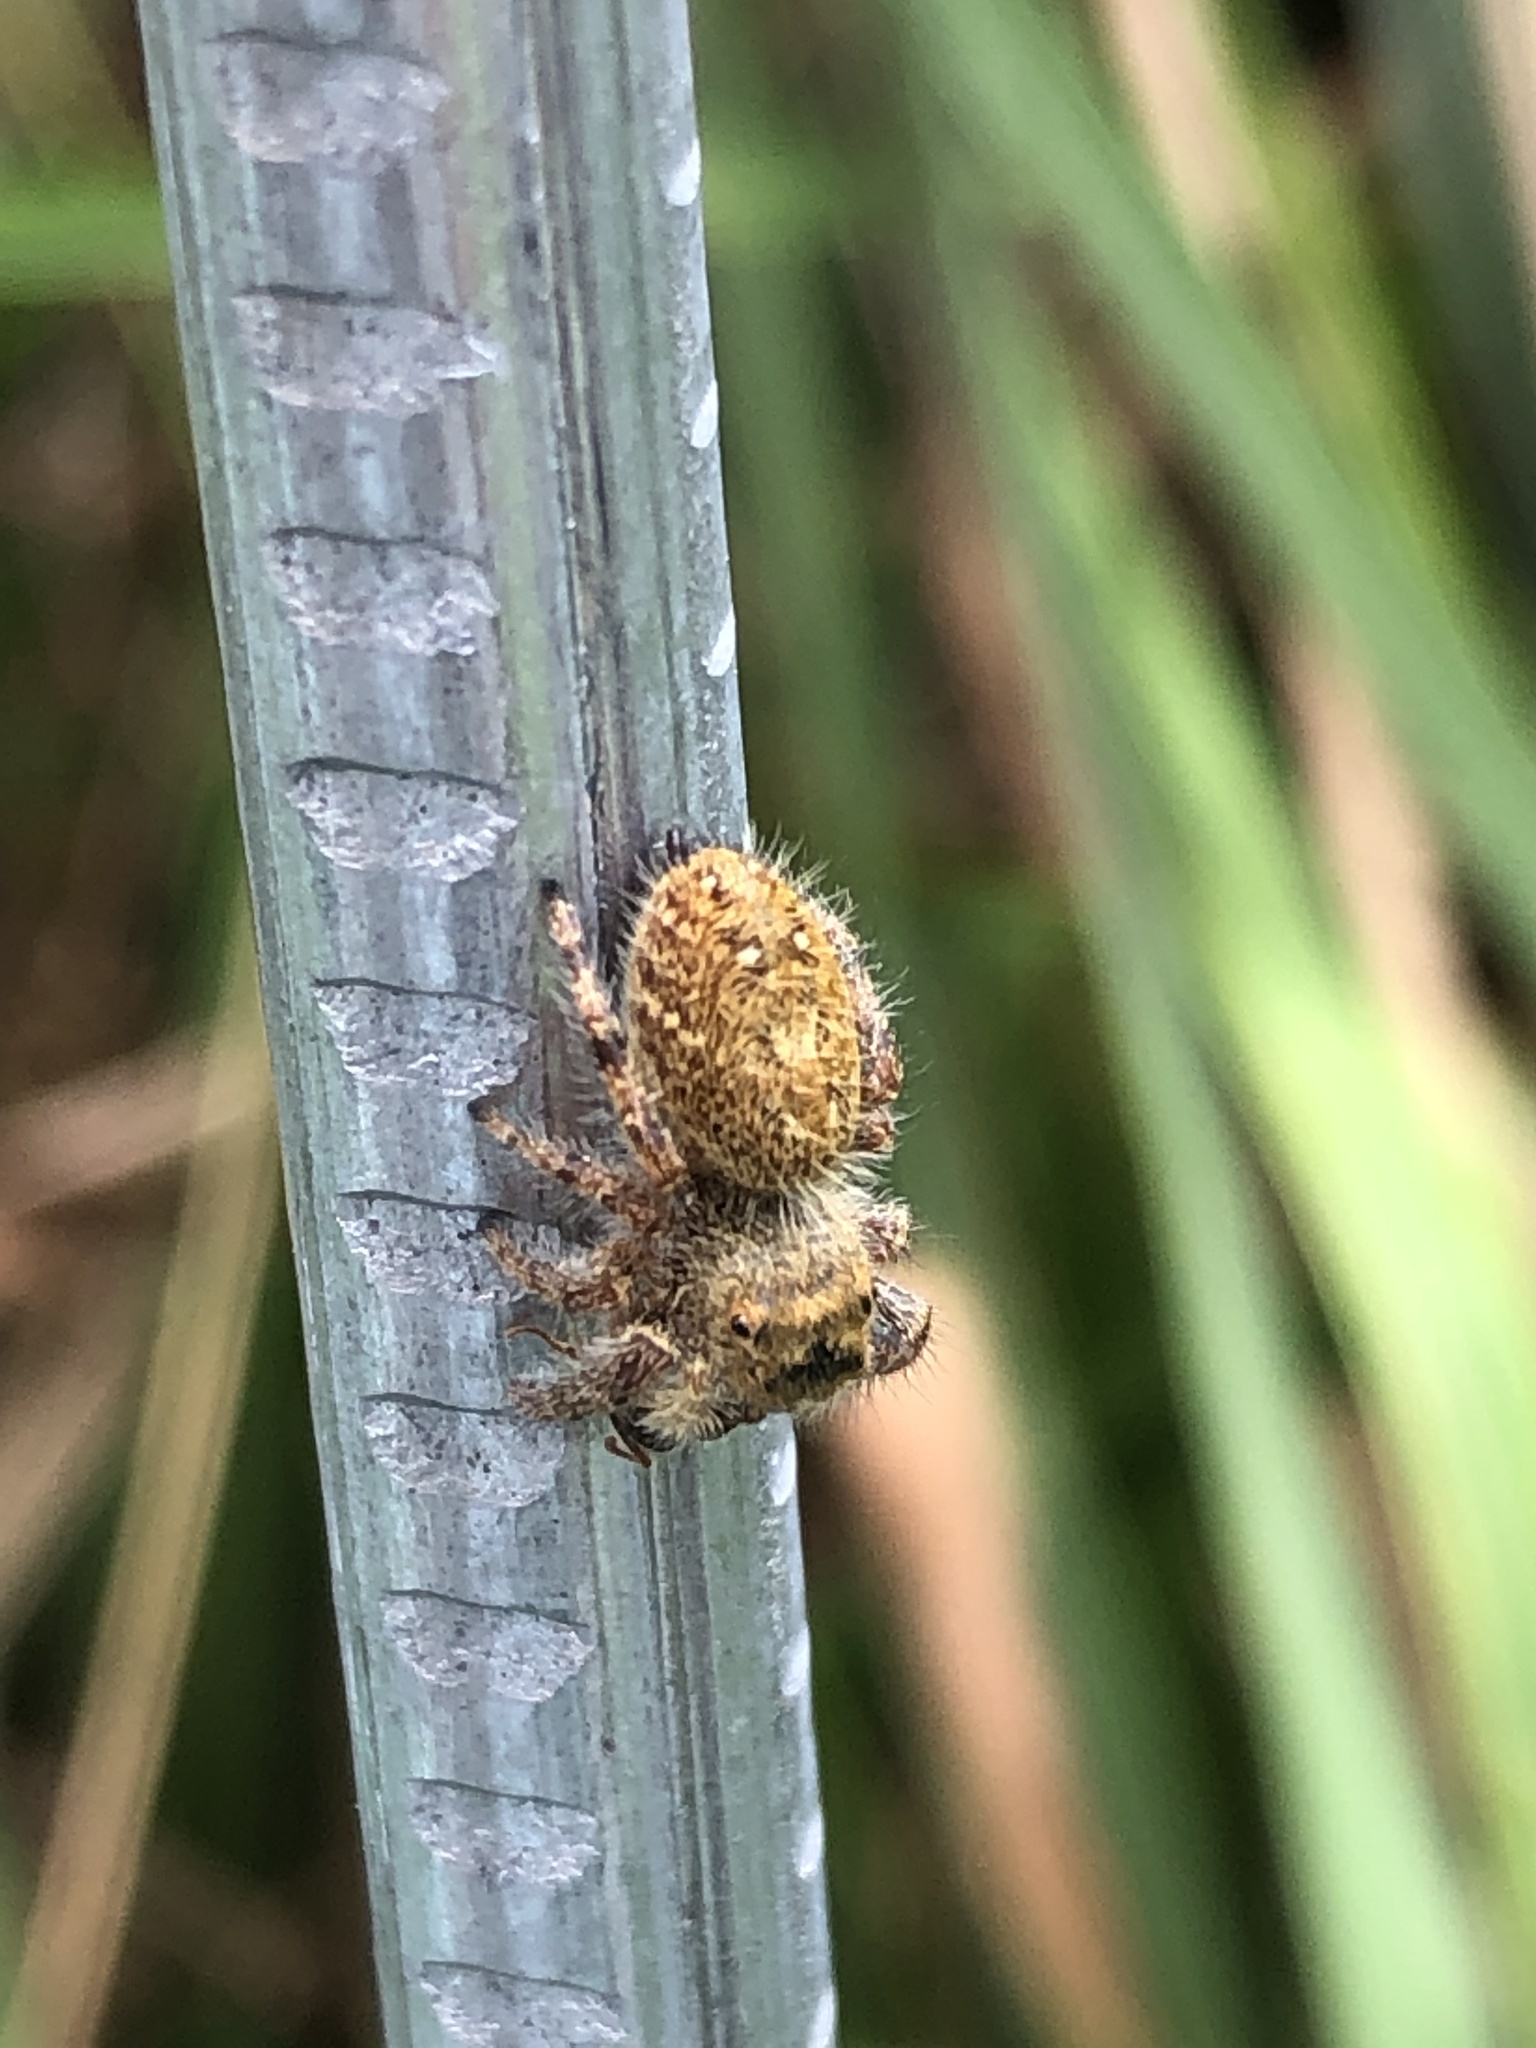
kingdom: Animalia
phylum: Arthropoda
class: Arachnida
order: Araneae
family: Salticidae
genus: Phidippus
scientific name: Phidippus princeps
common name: Grayish jumping spider
